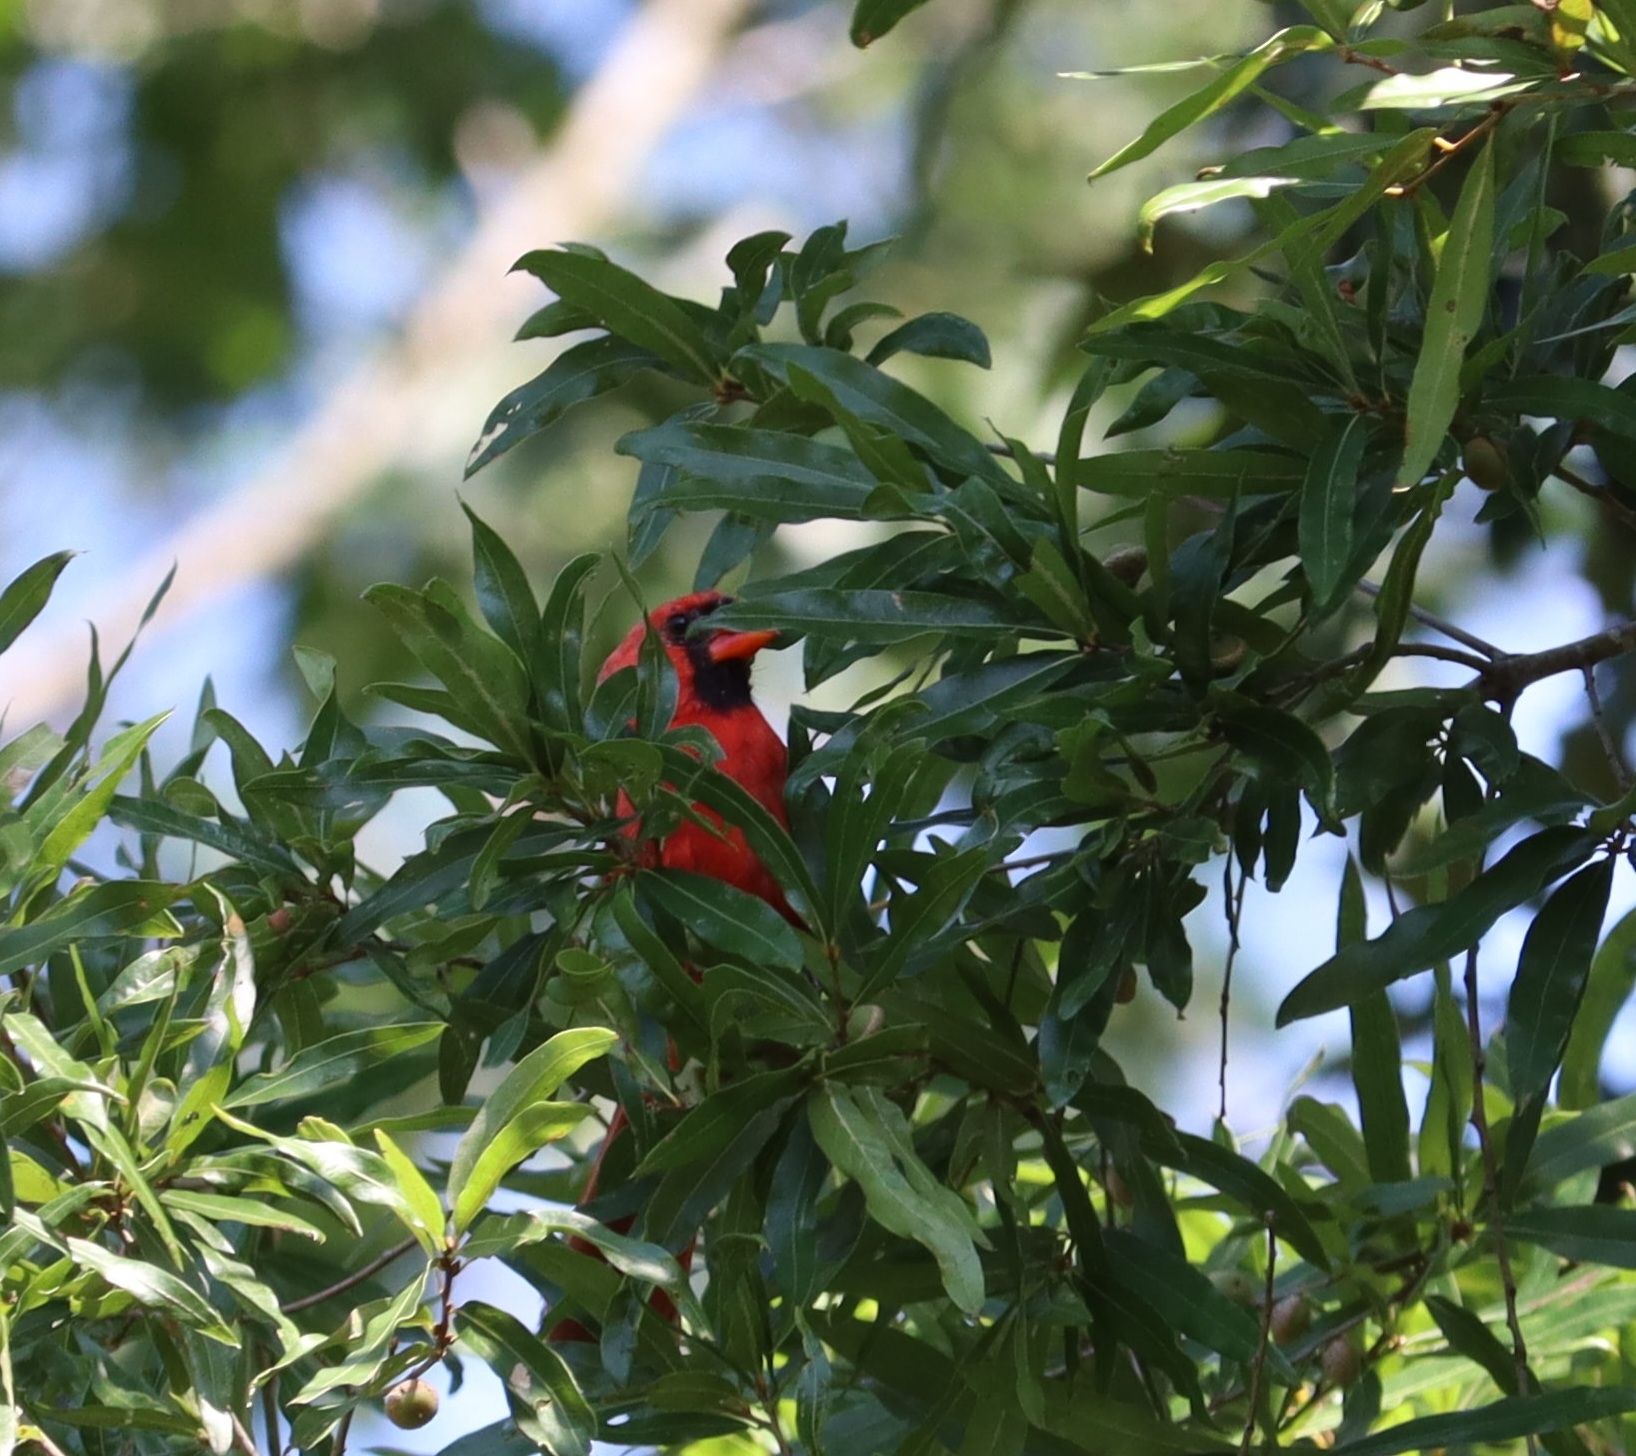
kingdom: Animalia
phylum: Chordata
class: Aves
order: Passeriformes
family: Cardinalidae
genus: Cardinalis
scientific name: Cardinalis cardinalis
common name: Northern cardinal
